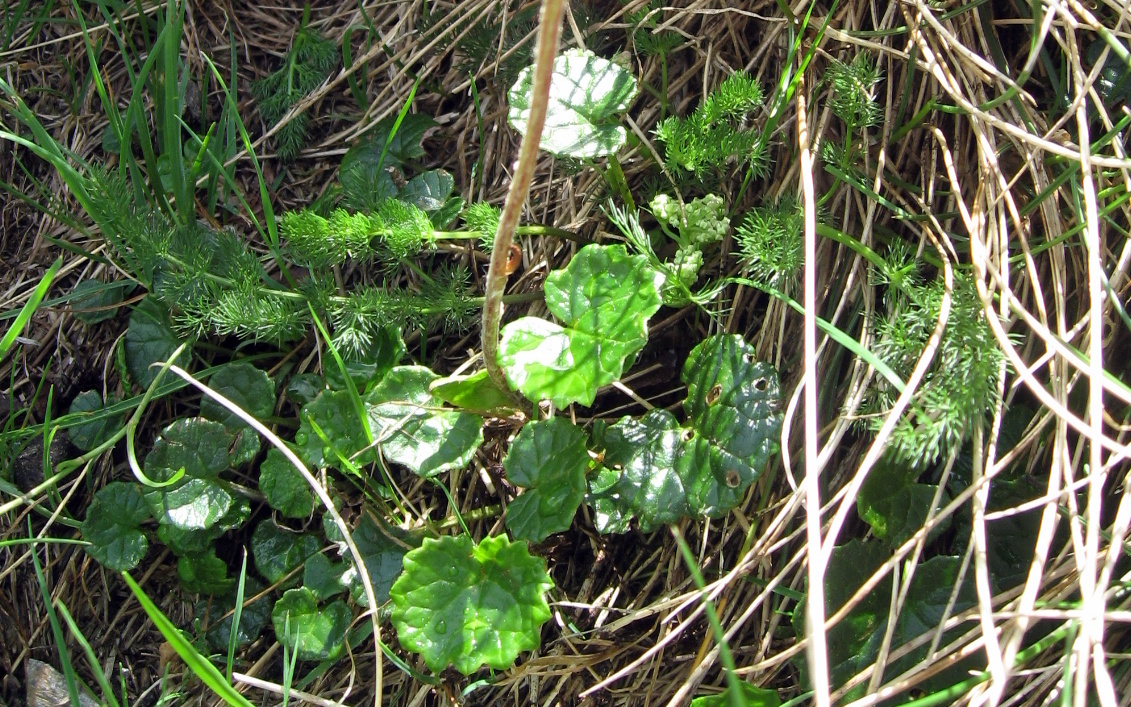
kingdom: Plantae
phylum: Tracheophyta
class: Magnoliopsida
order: Asterales
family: Asteraceae
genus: Homogyne
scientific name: Homogyne alpina
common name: Purple colt's-foot
